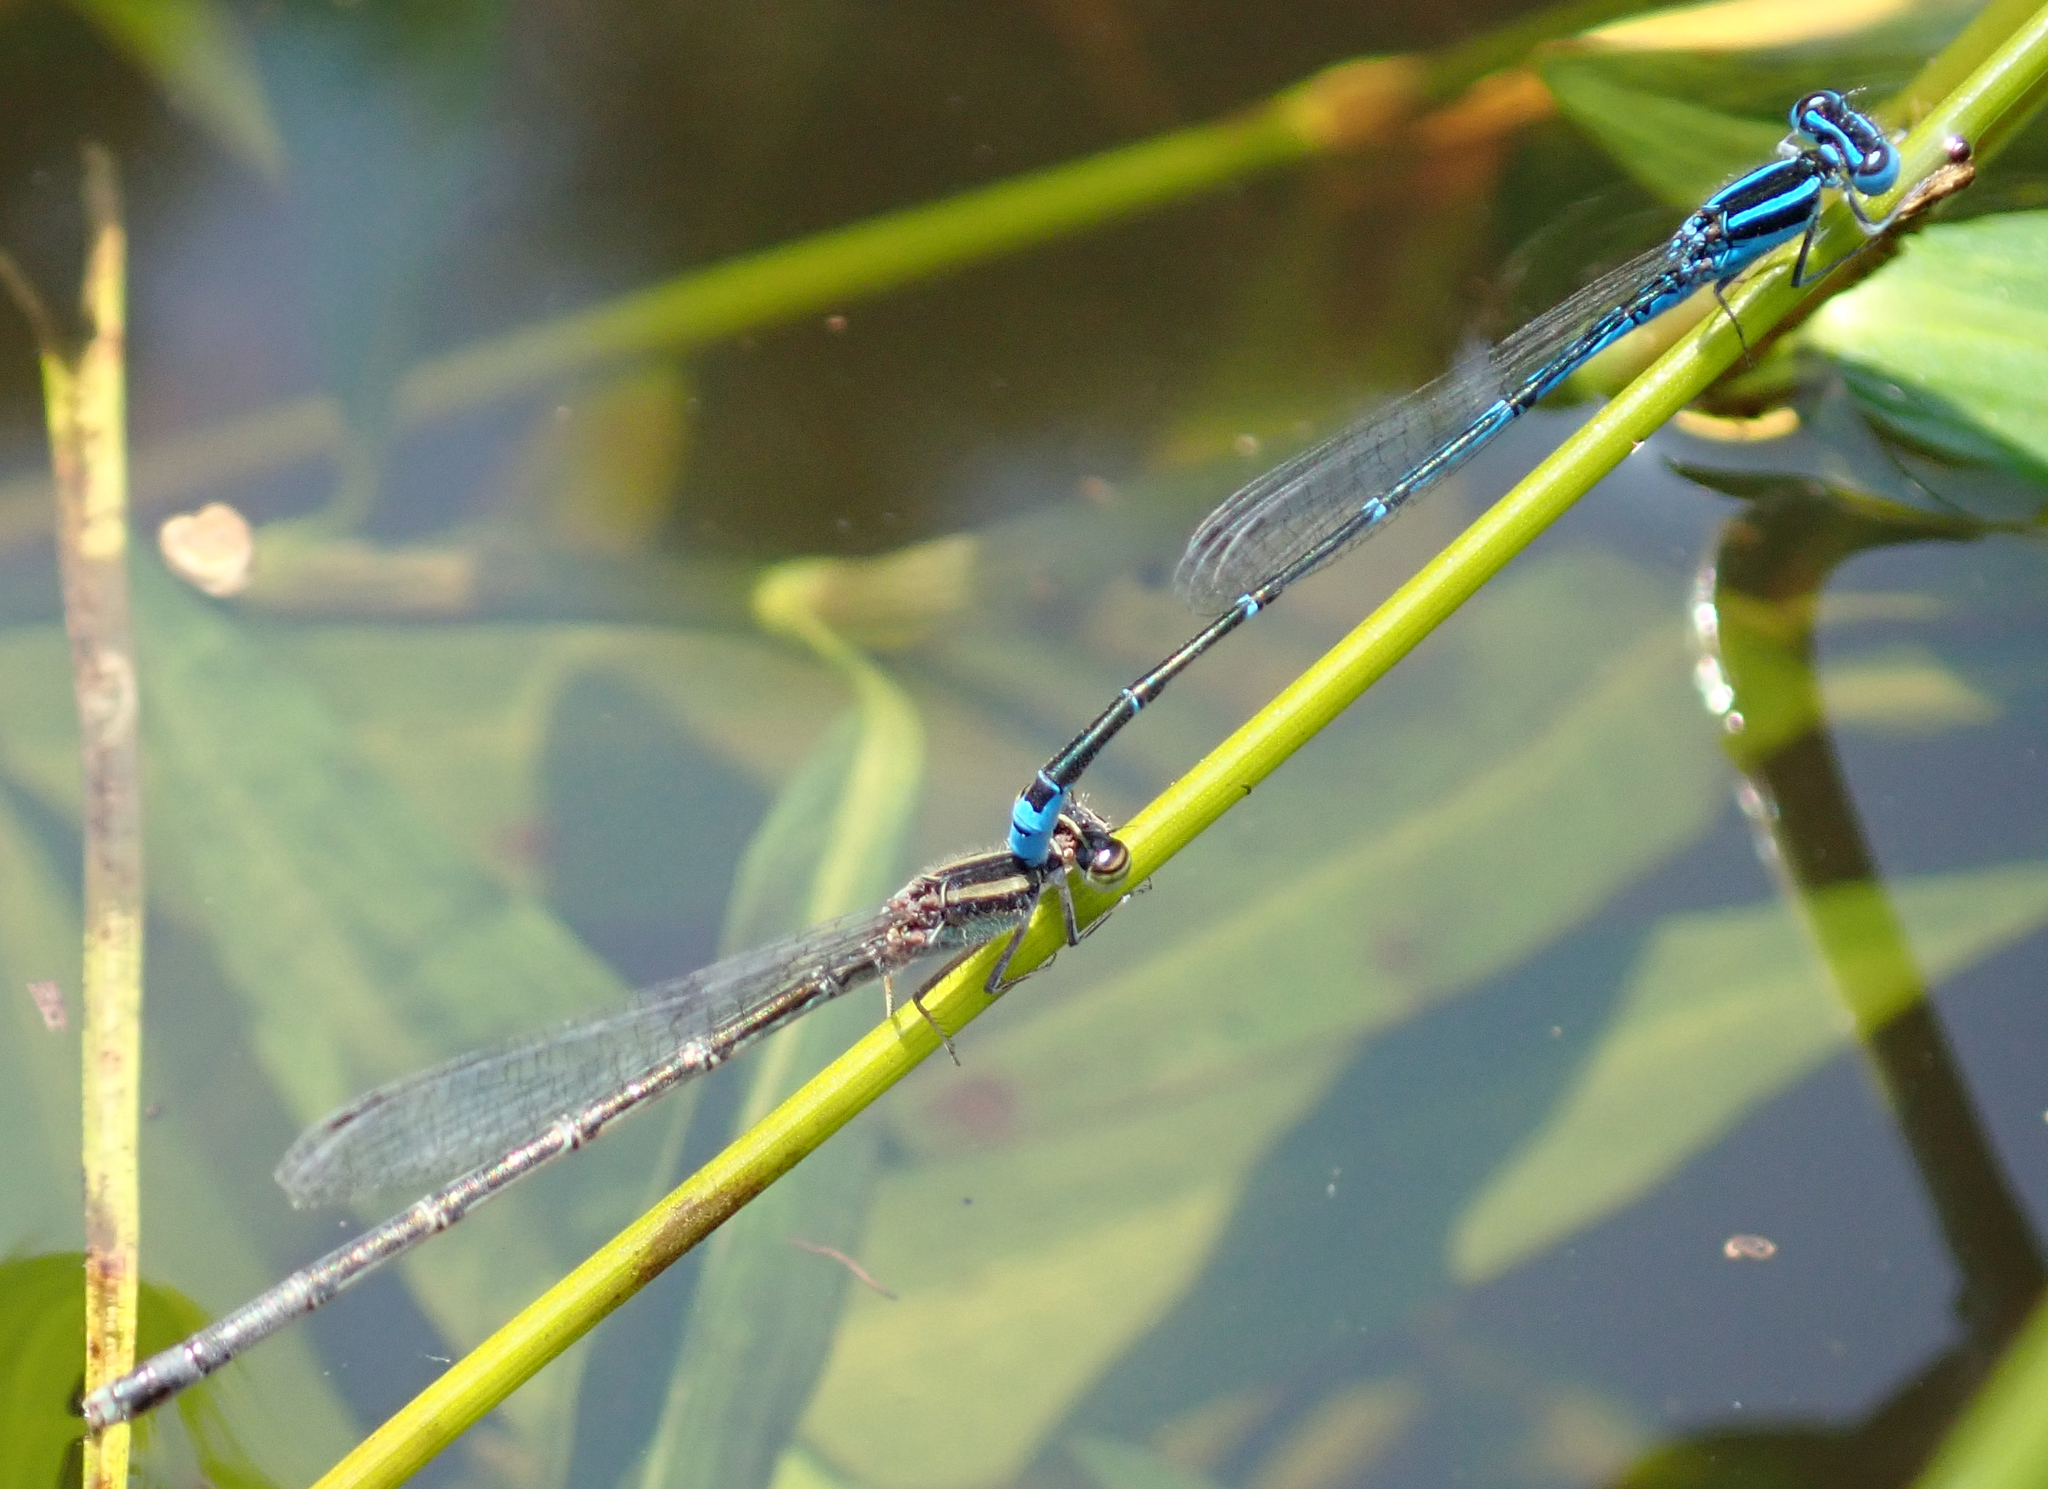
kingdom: Animalia
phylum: Arthropoda
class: Insecta
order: Odonata
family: Coenagrionidae
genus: Azuragrion
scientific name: Azuragrion nigridorsum
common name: Sailing azuret
